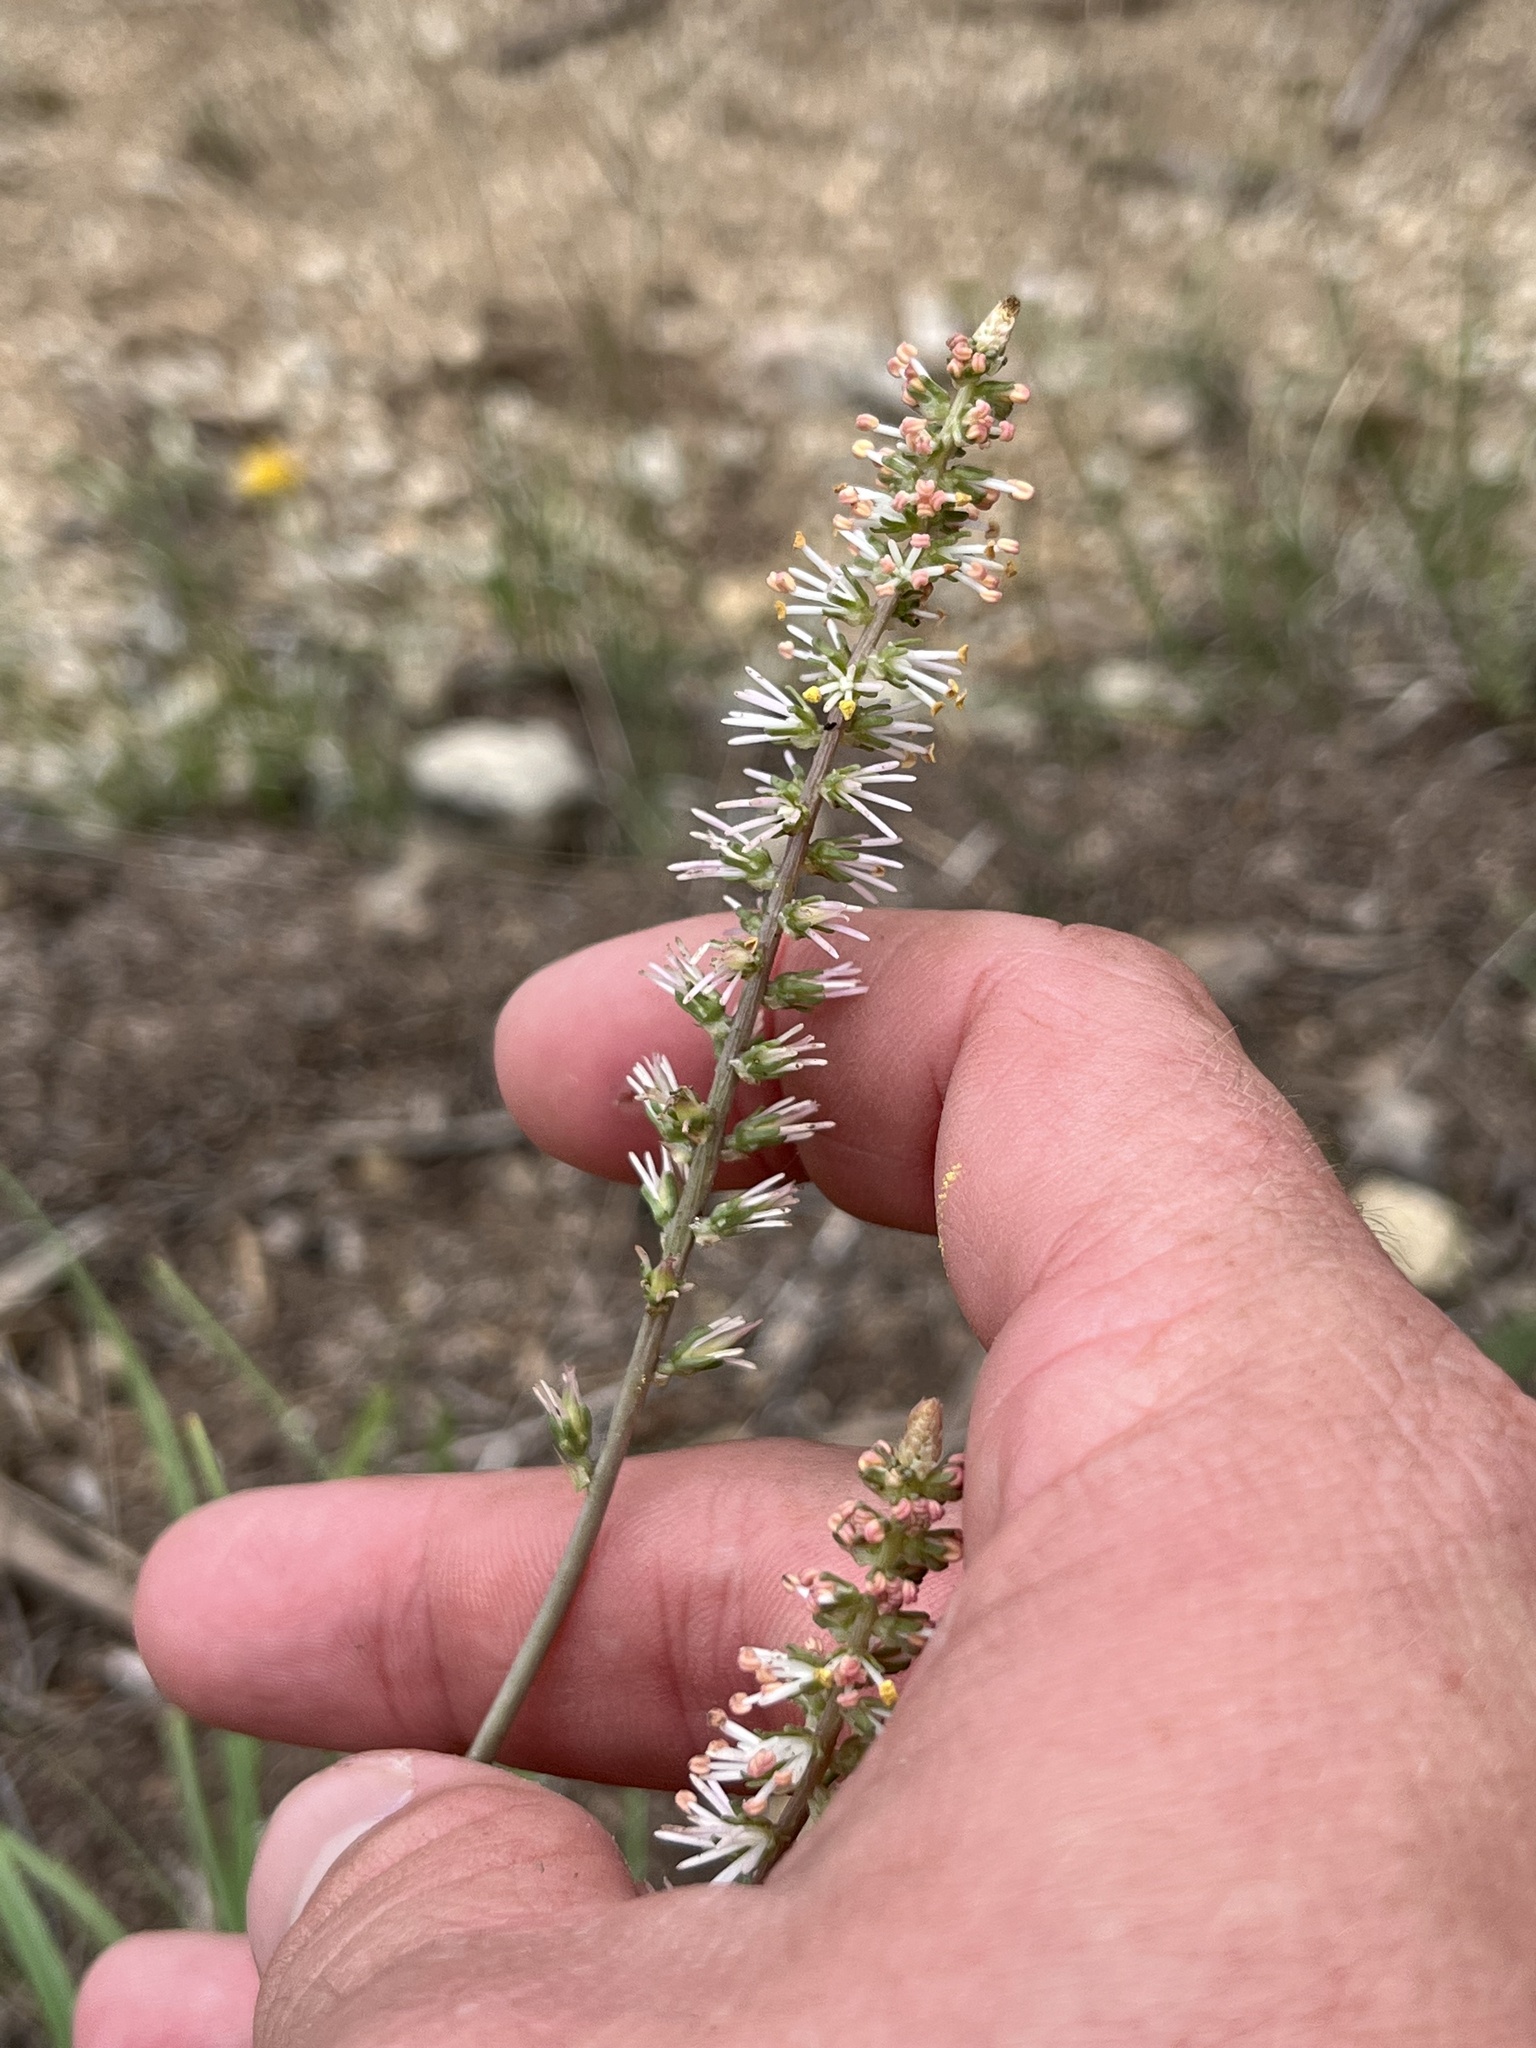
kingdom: Plantae
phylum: Tracheophyta
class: Liliopsida
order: Liliales
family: Melanthiaceae
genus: Schoenocaulon
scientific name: Schoenocaulon texanum
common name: Texas feather-shank
